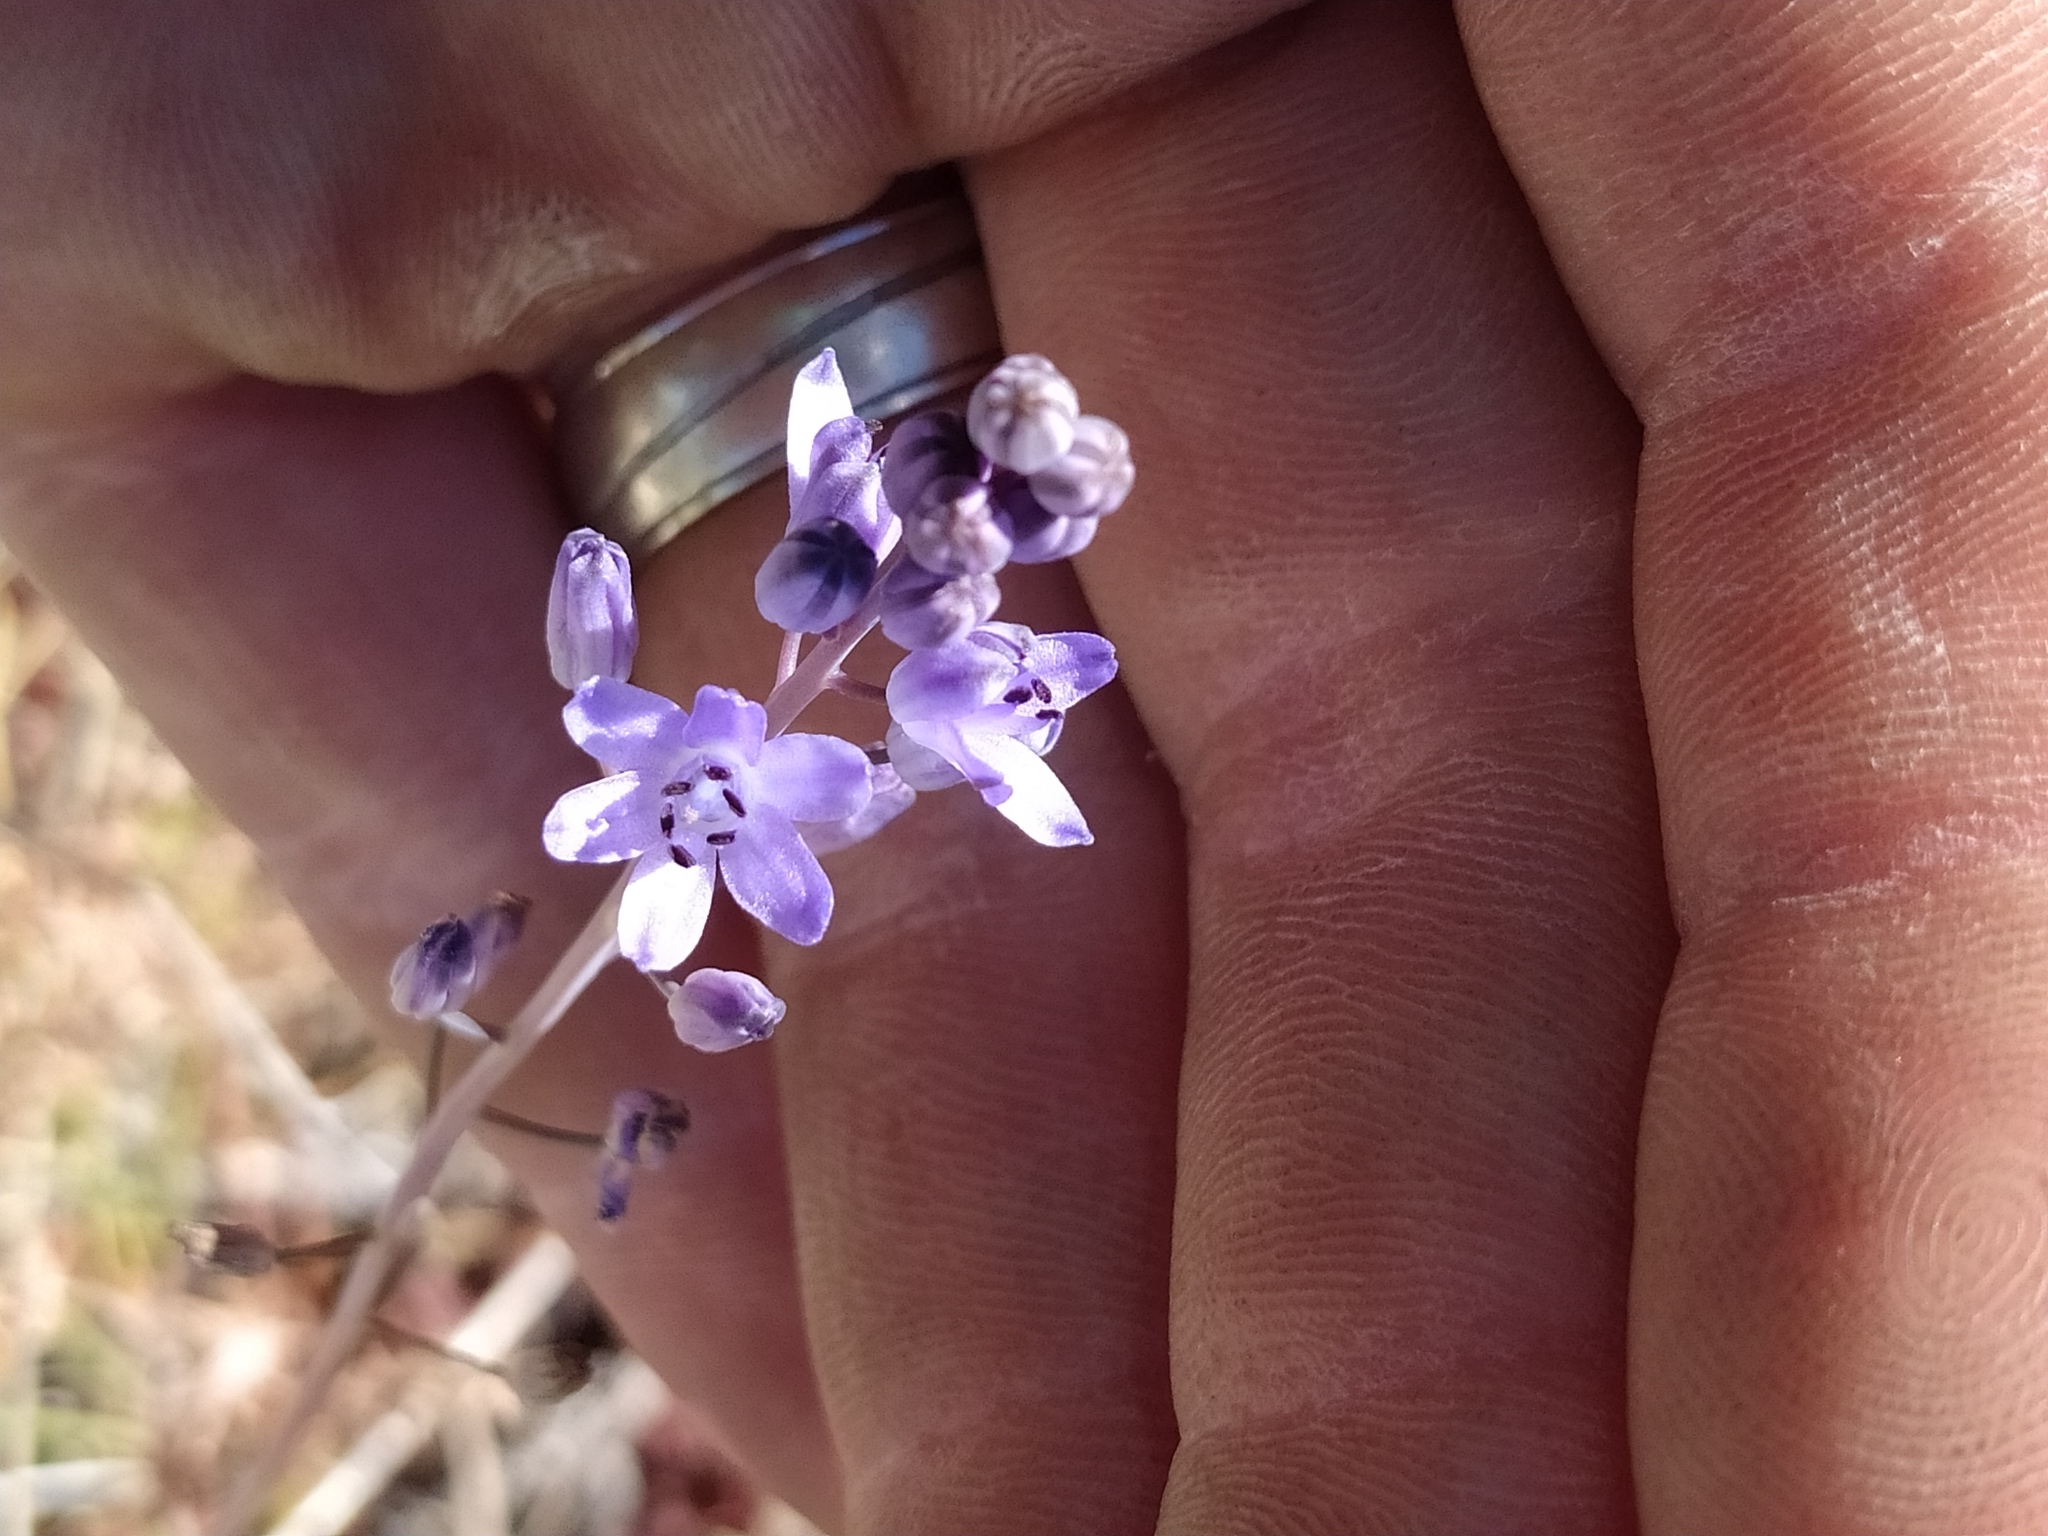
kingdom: Plantae
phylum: Tracheophyta
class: Liliopsida
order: Asparagales
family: Asparagaceae
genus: Prospero
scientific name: Prospero autumnale
